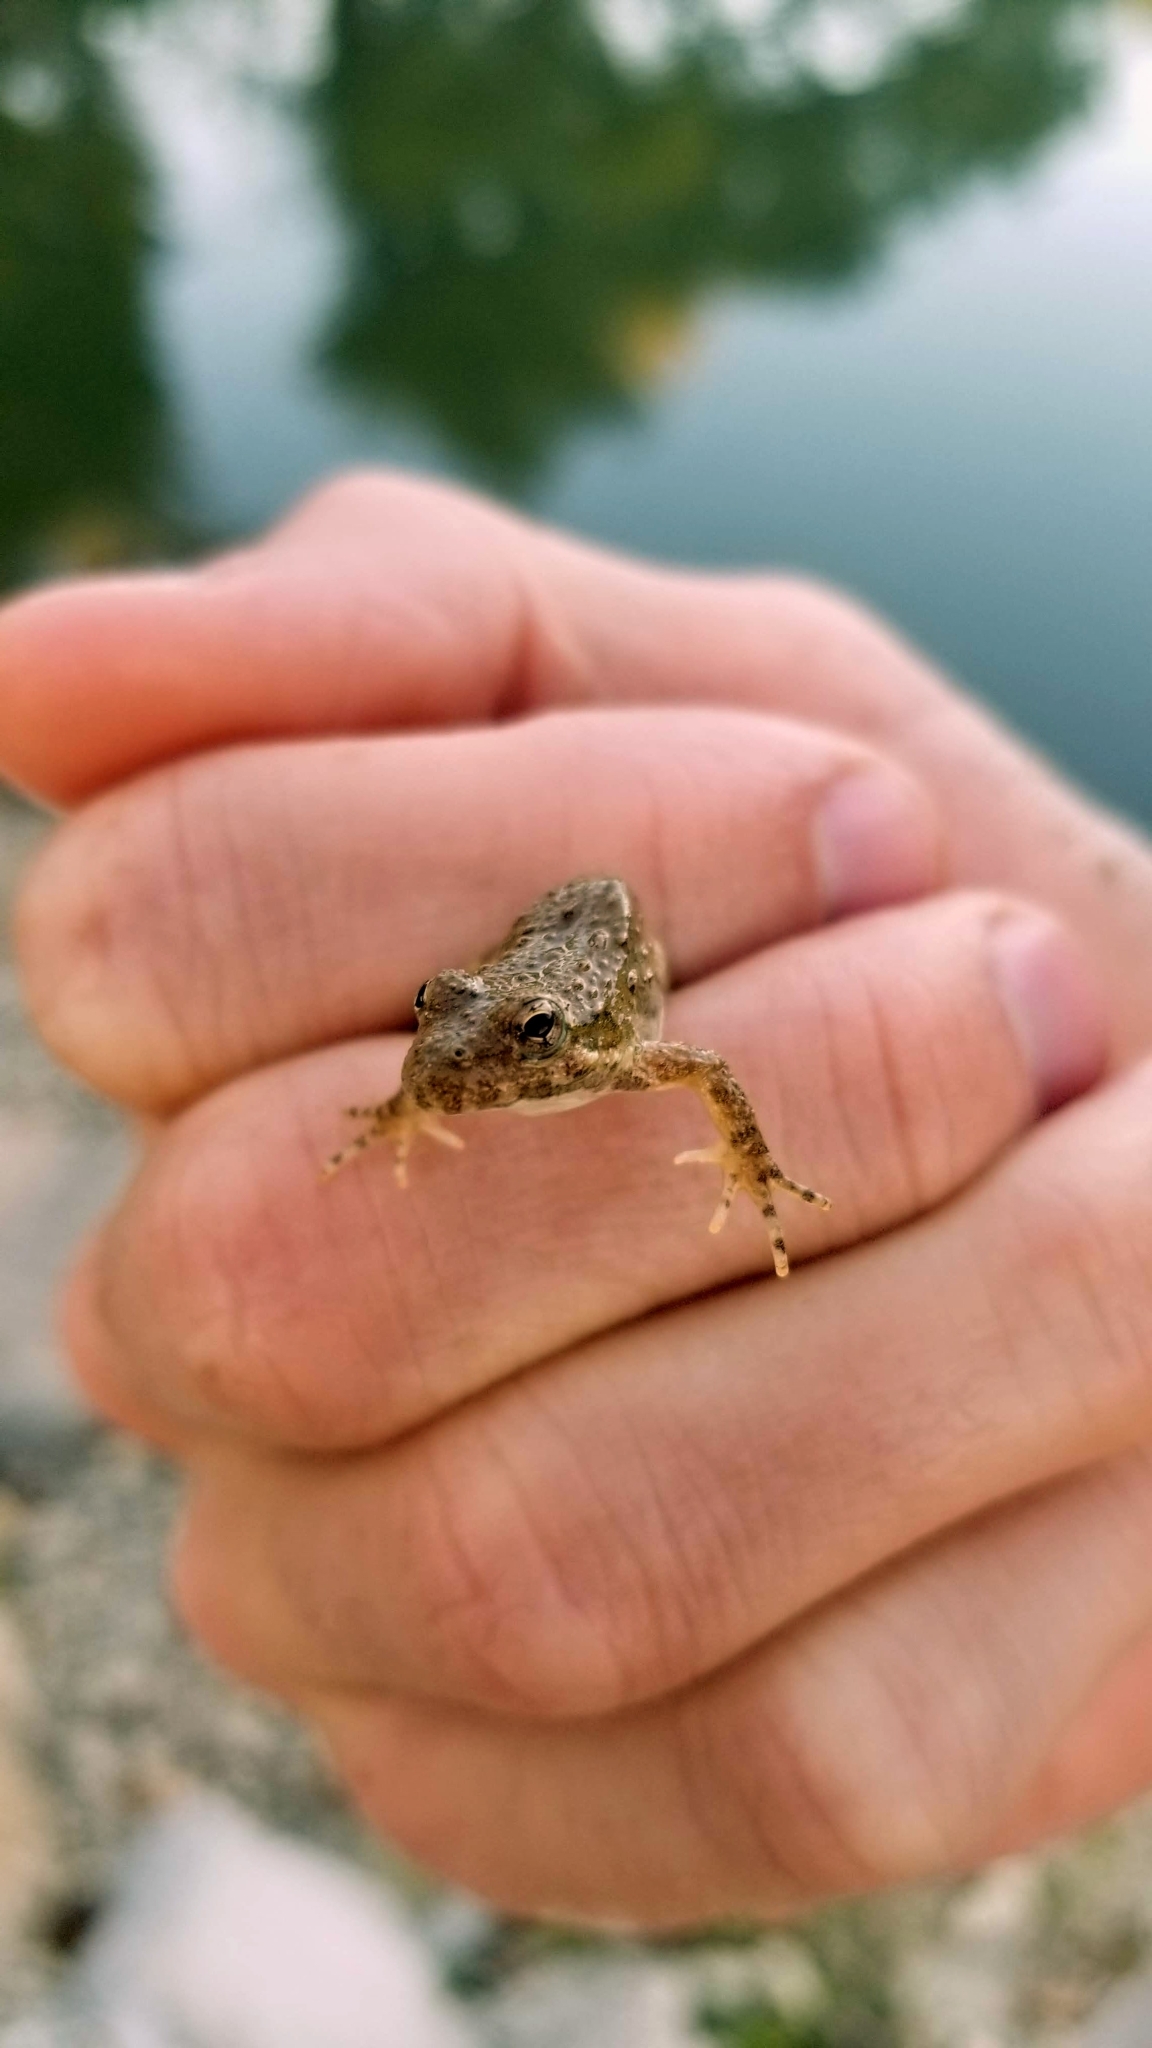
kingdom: Animalia
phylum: Chordata
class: Amphibia
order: Anura
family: Hylidae
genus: Acris
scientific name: Acris blanchardi
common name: Blanchard's cricket frog
